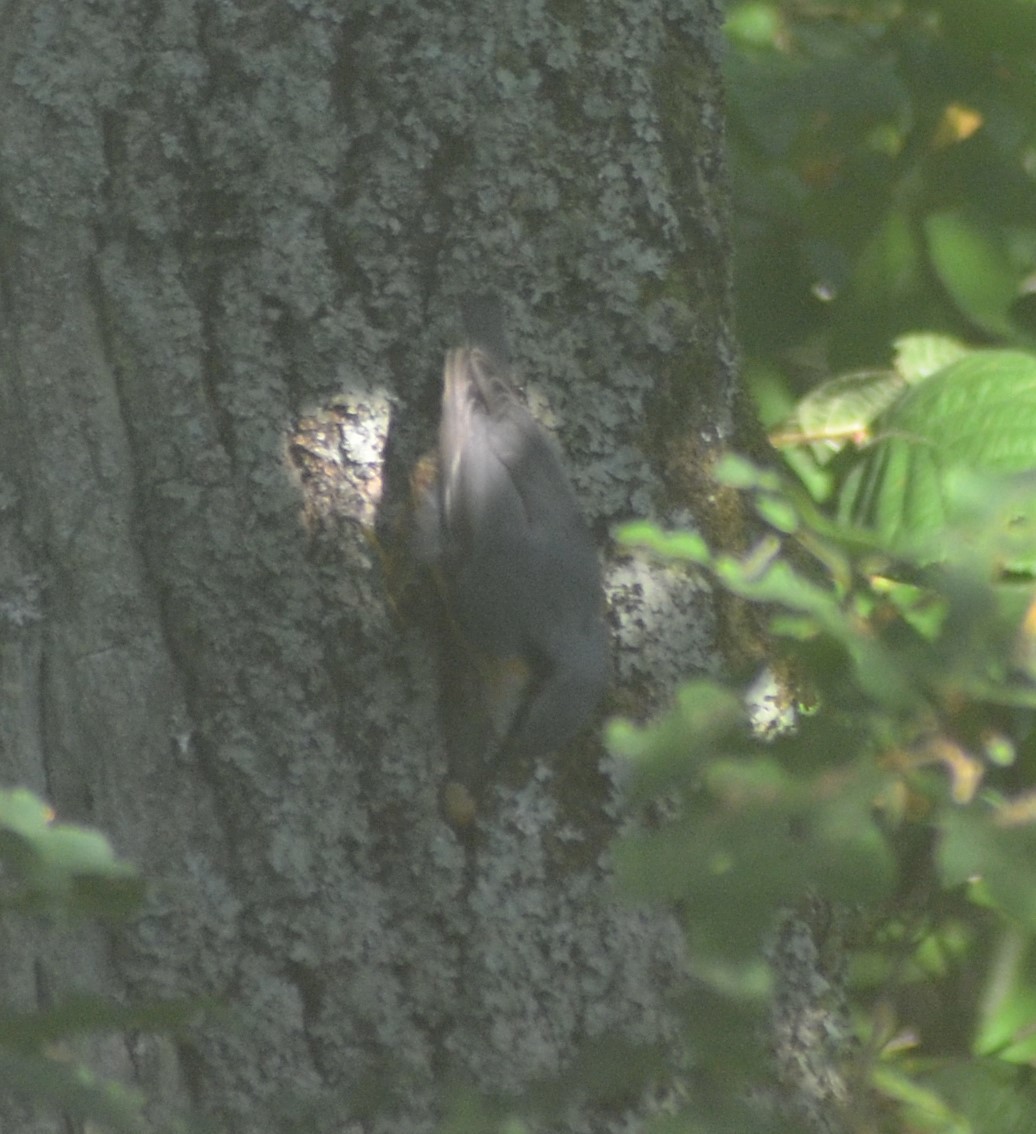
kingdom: Animalia
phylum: Chordata
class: Aves
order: Passeriformes
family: Sittidae
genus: Sitta
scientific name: Sitta europaea
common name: Eurasian nuthatch
